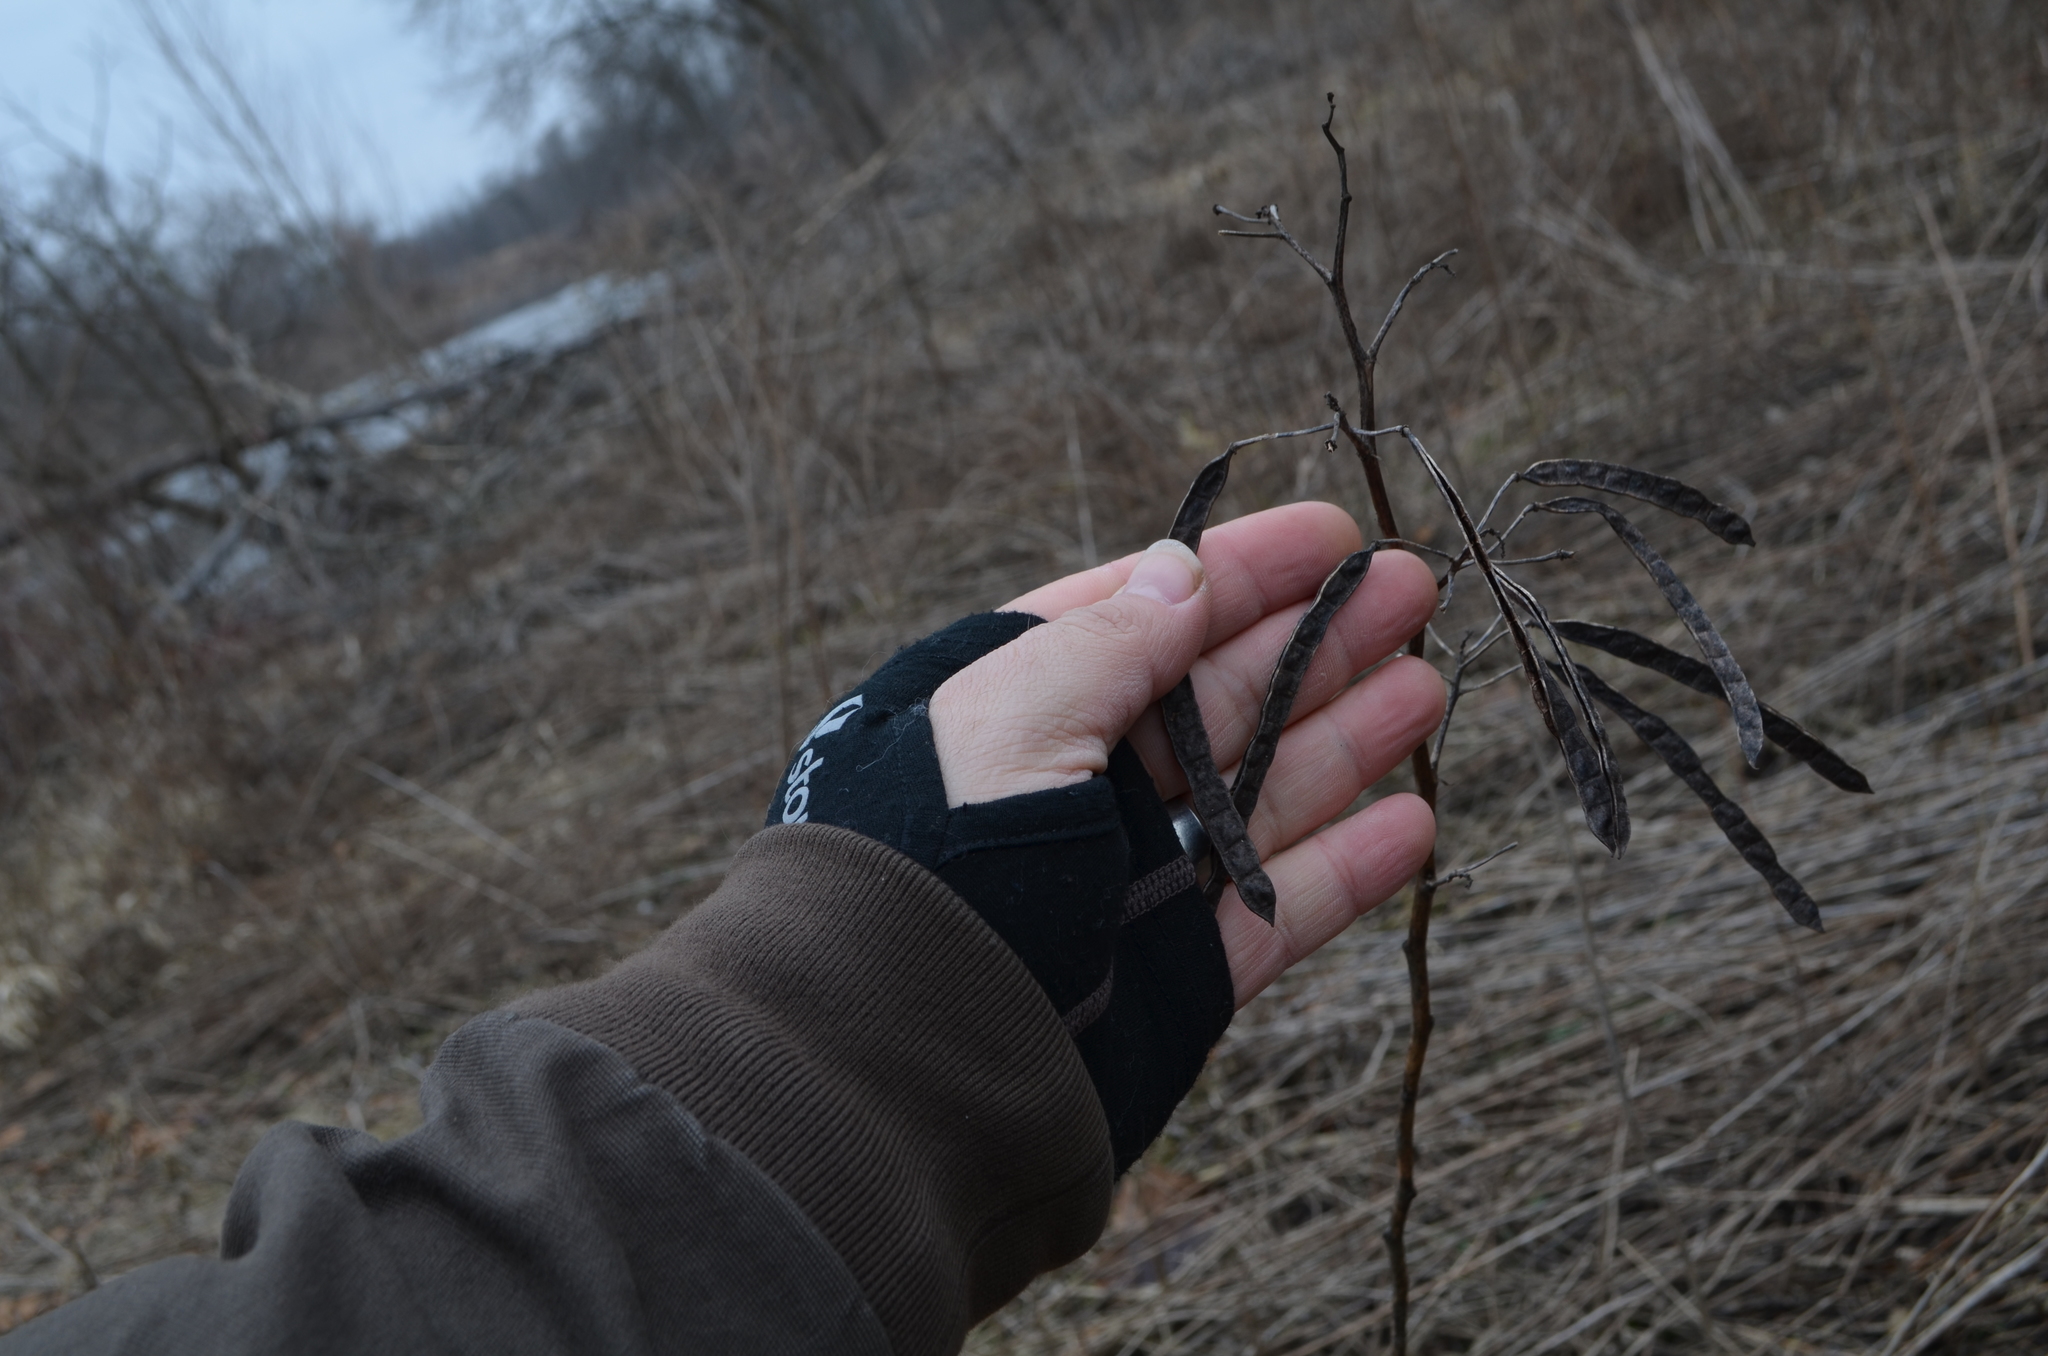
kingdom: Plantae
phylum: Tracheophyta
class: Magnoliopsida
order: Fabales
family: Fabaceae
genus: Senna
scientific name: Senna hebecarpa
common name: Wild senna
